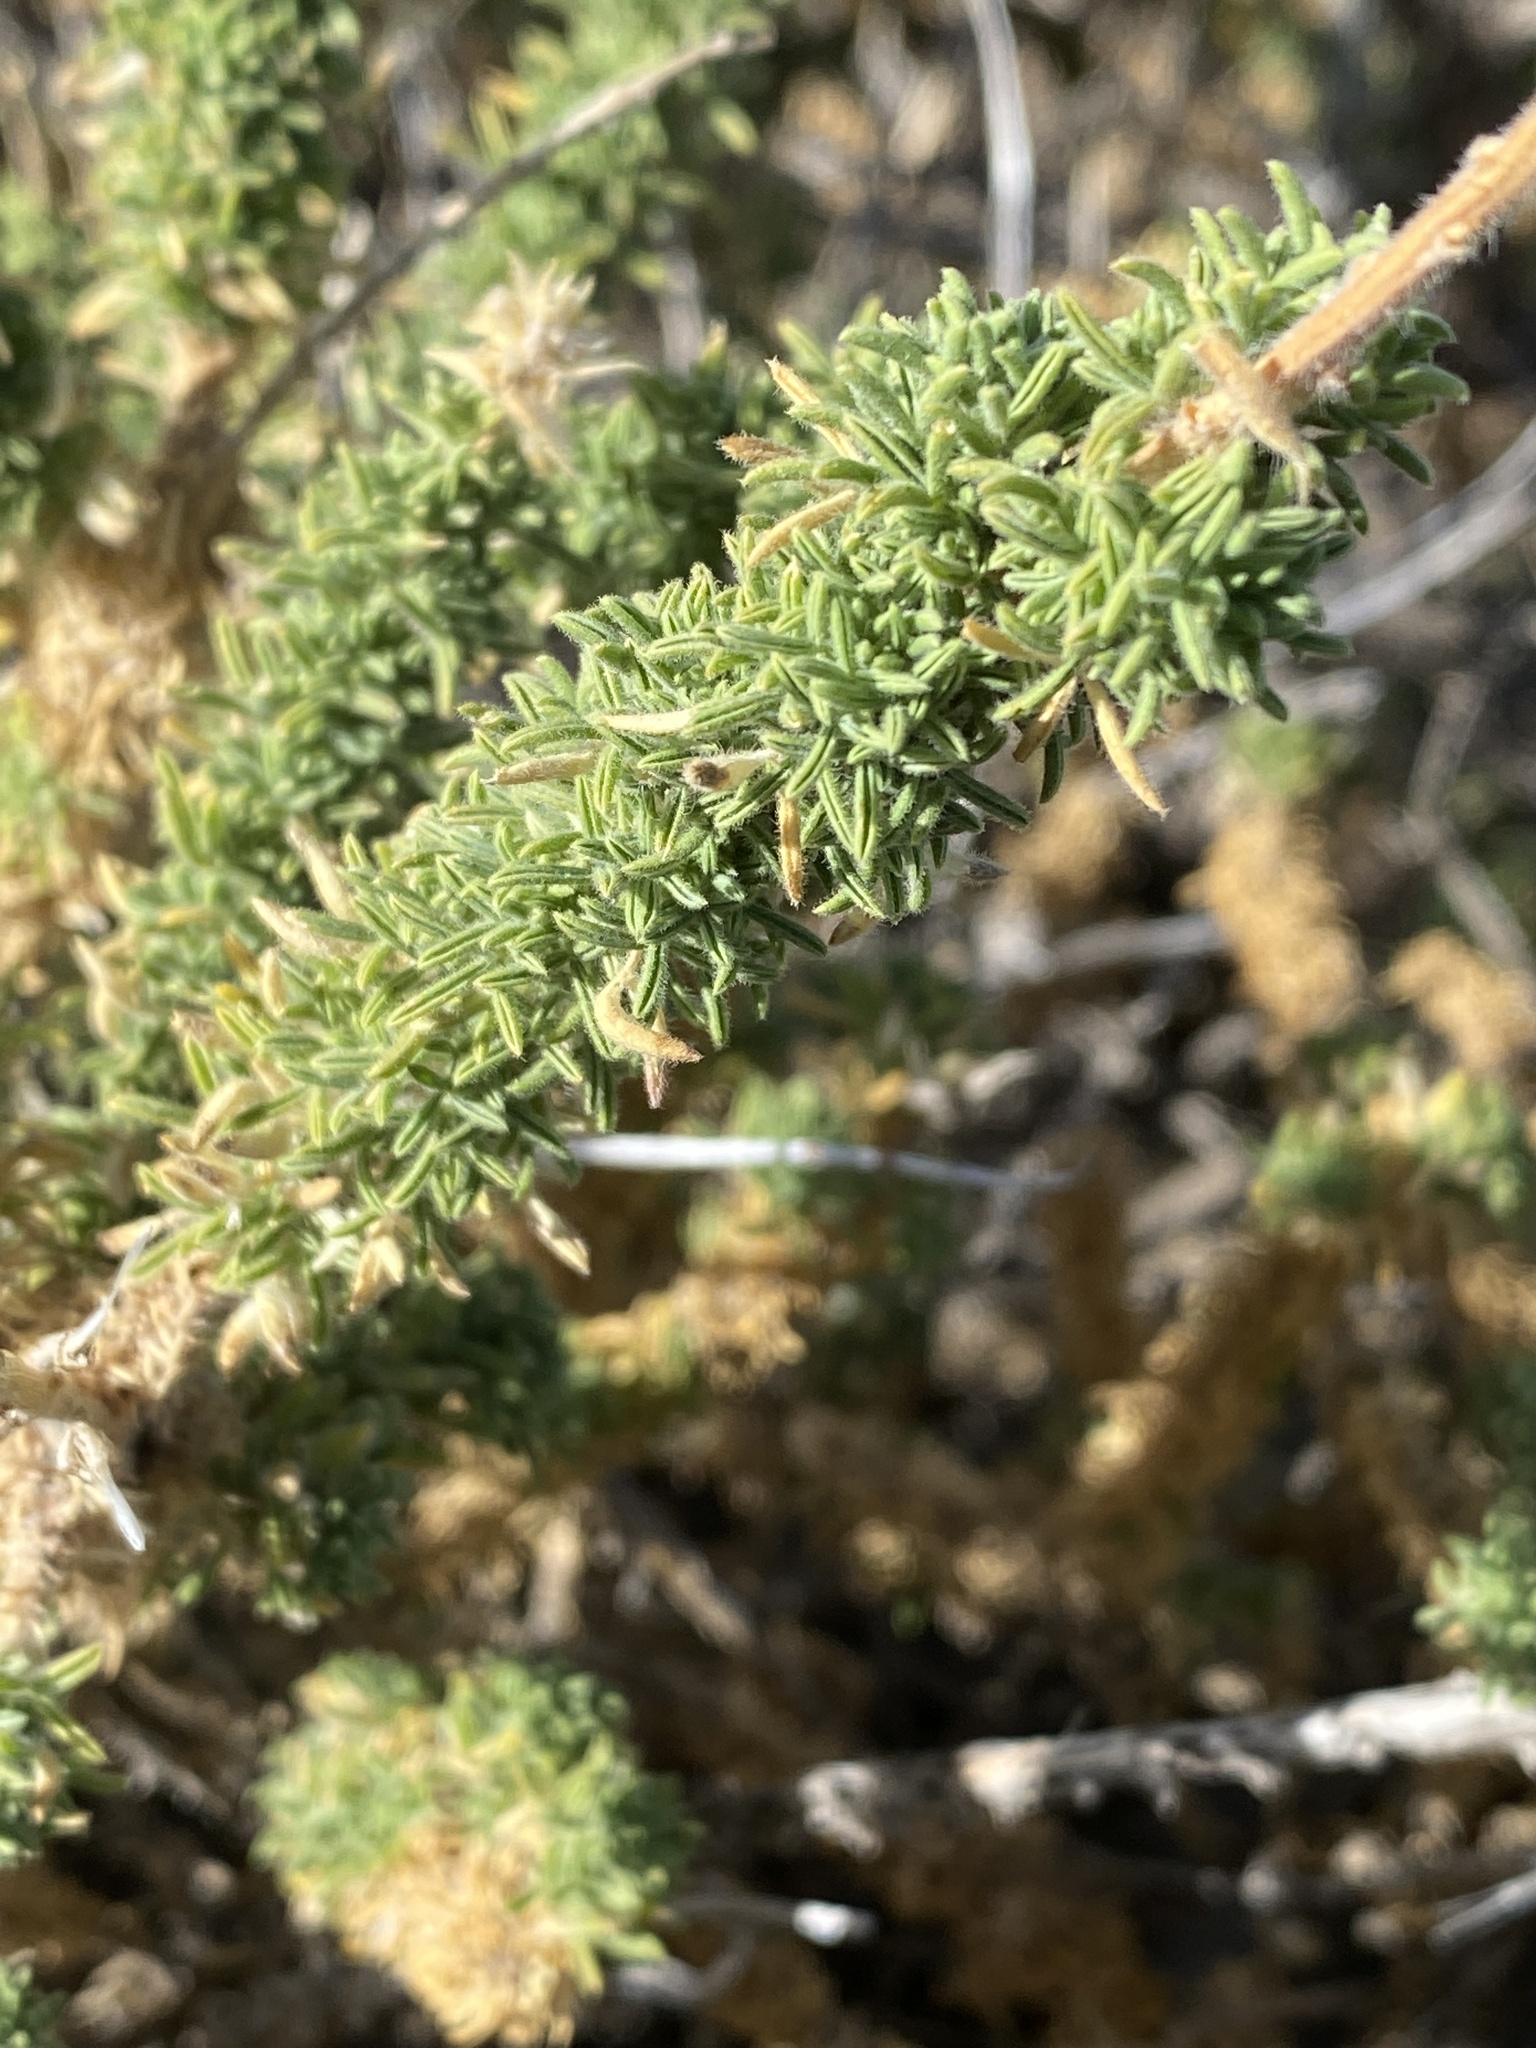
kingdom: Plantae
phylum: Tracheophyta
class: Magnoliopsida
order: Fabales
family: Fabaceae
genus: Adenocarpus
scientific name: Adenocarpus viscosus
